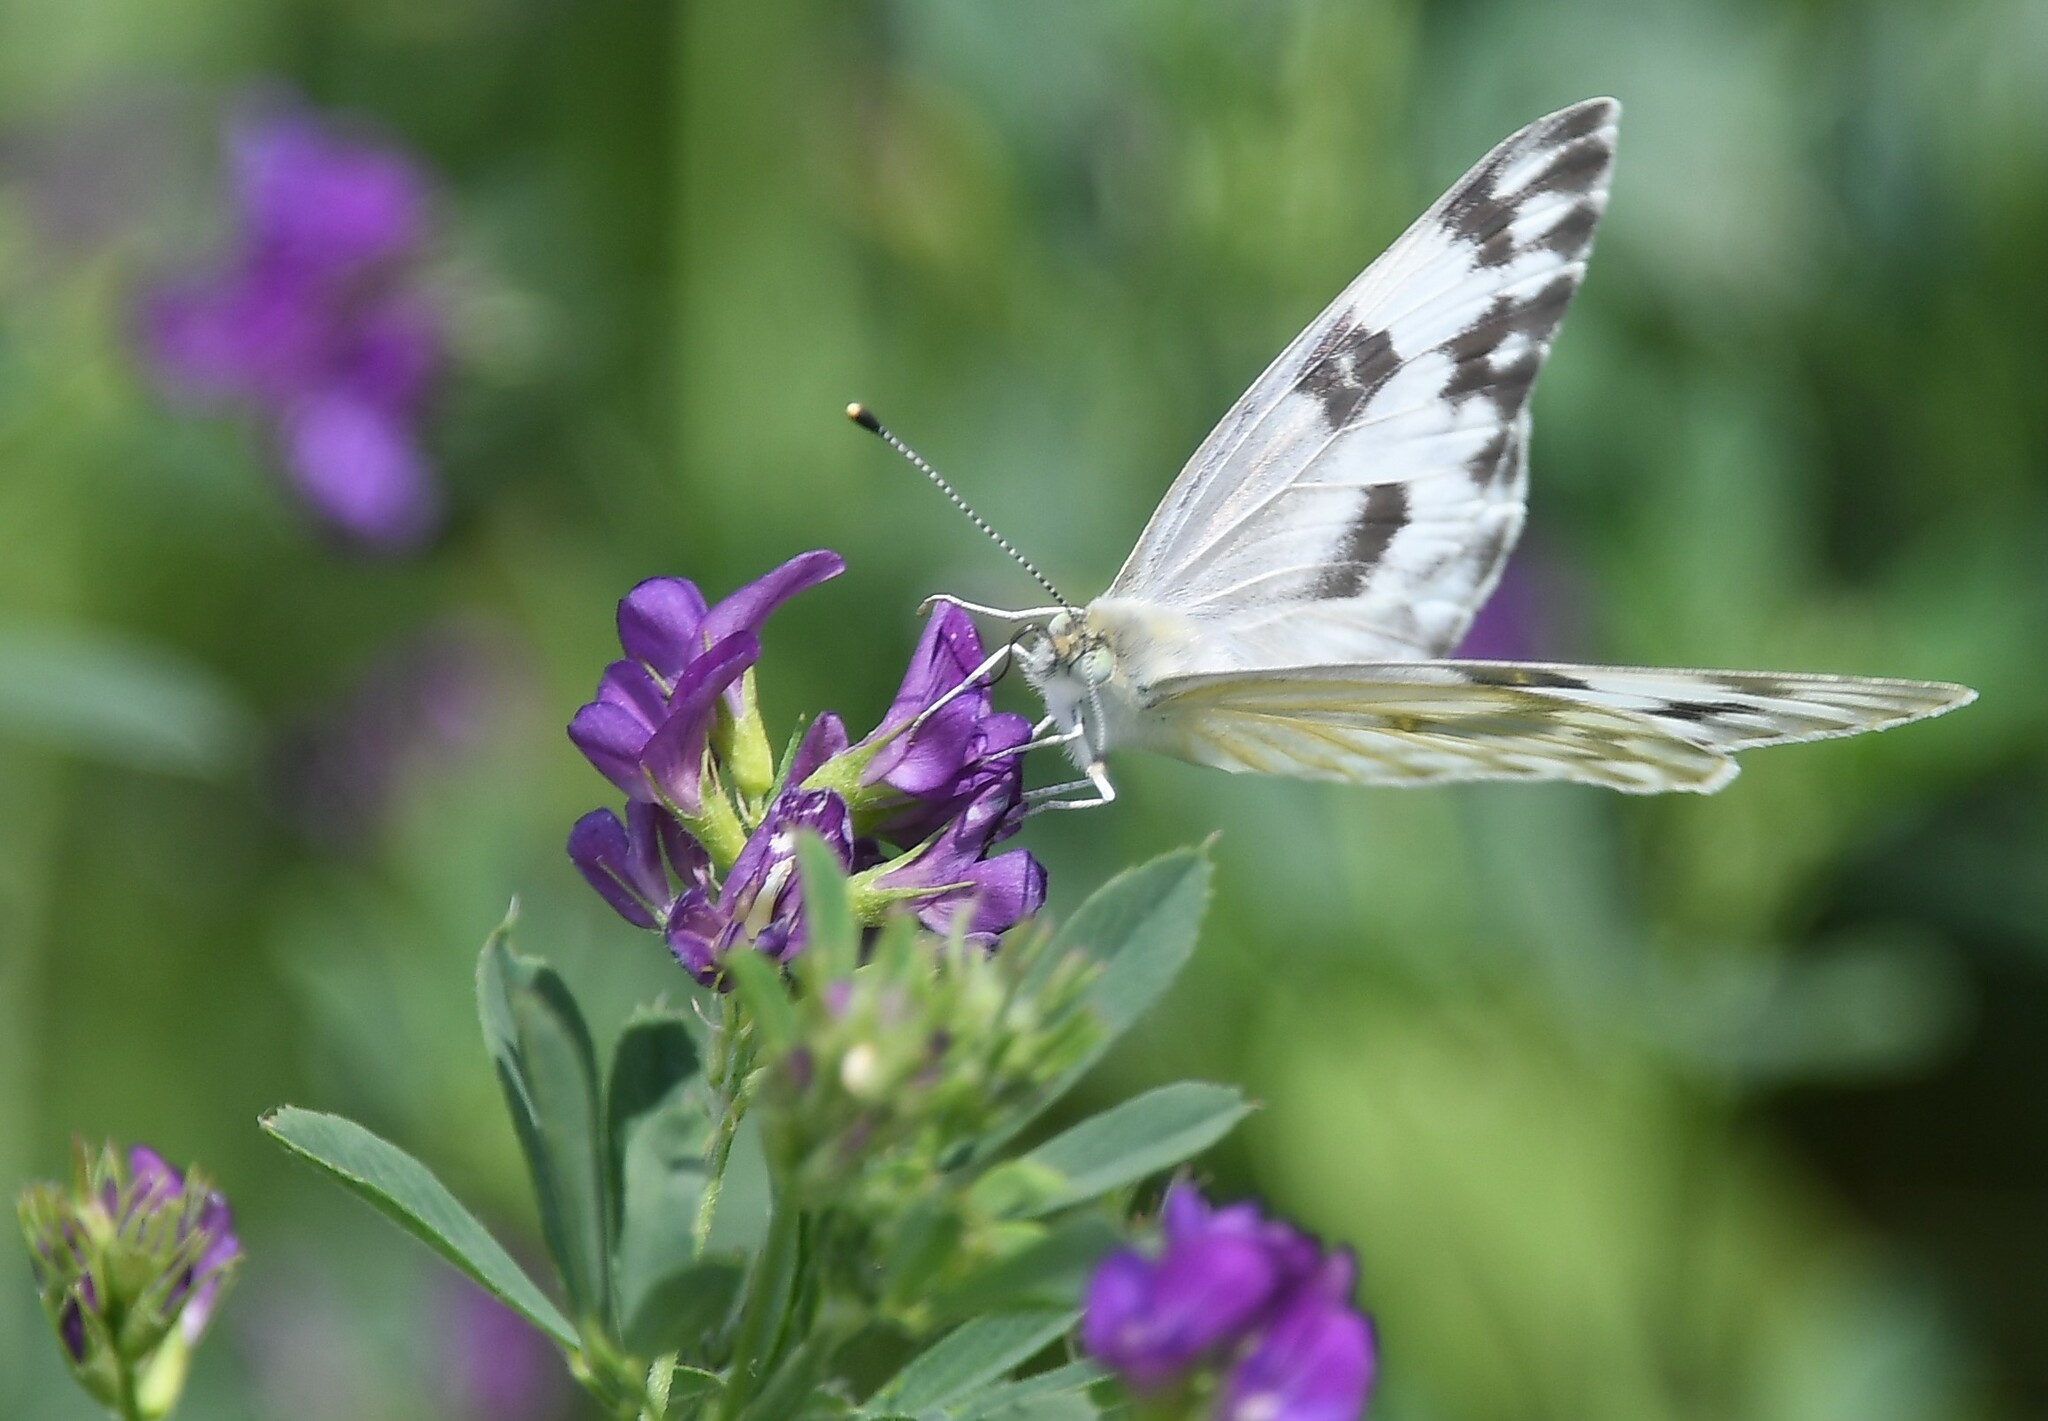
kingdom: Animalia
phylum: Arthropoda
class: Insecta
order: Lepidoptera
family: Pieridae
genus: Pontia
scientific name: Pontia protodice
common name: Checkered white
